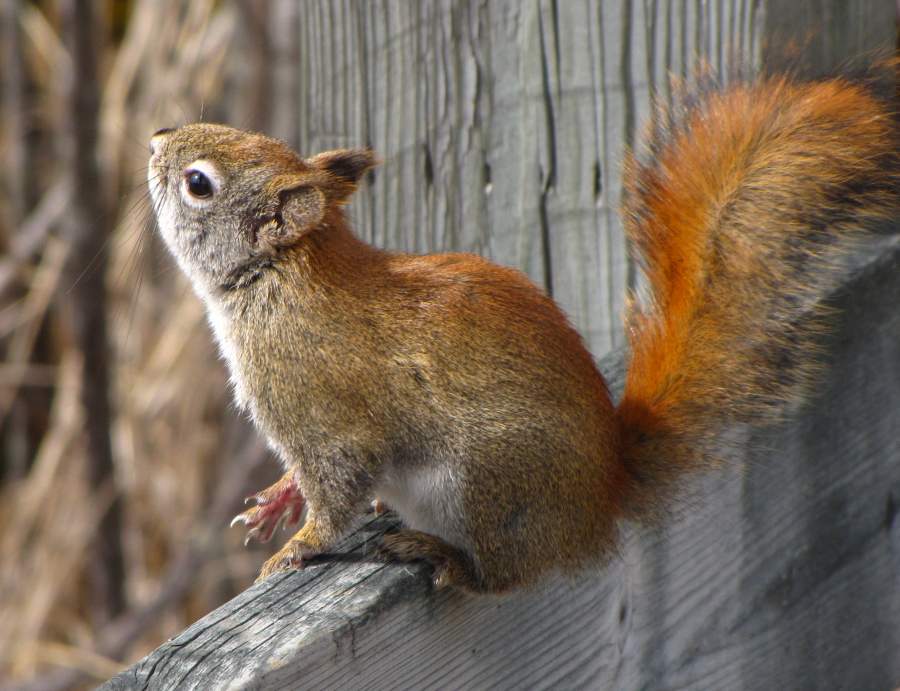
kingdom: Animalia
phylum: Chordata
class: Mammalia
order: Rodentia
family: Sciuridae
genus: Tamiasciurus
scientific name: Tamiasciurus hudsonicus
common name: Red squirrel
